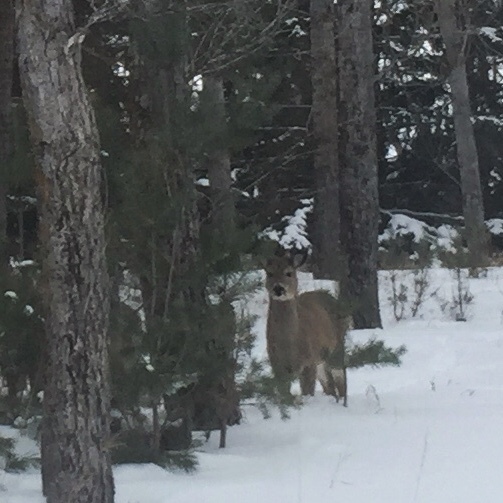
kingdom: Animalia
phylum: Chordata
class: Mammalia
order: Artiodactyla
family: Cervidae
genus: Odocoileus
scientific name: Odocoileus virginianus
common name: White-tailed deer
